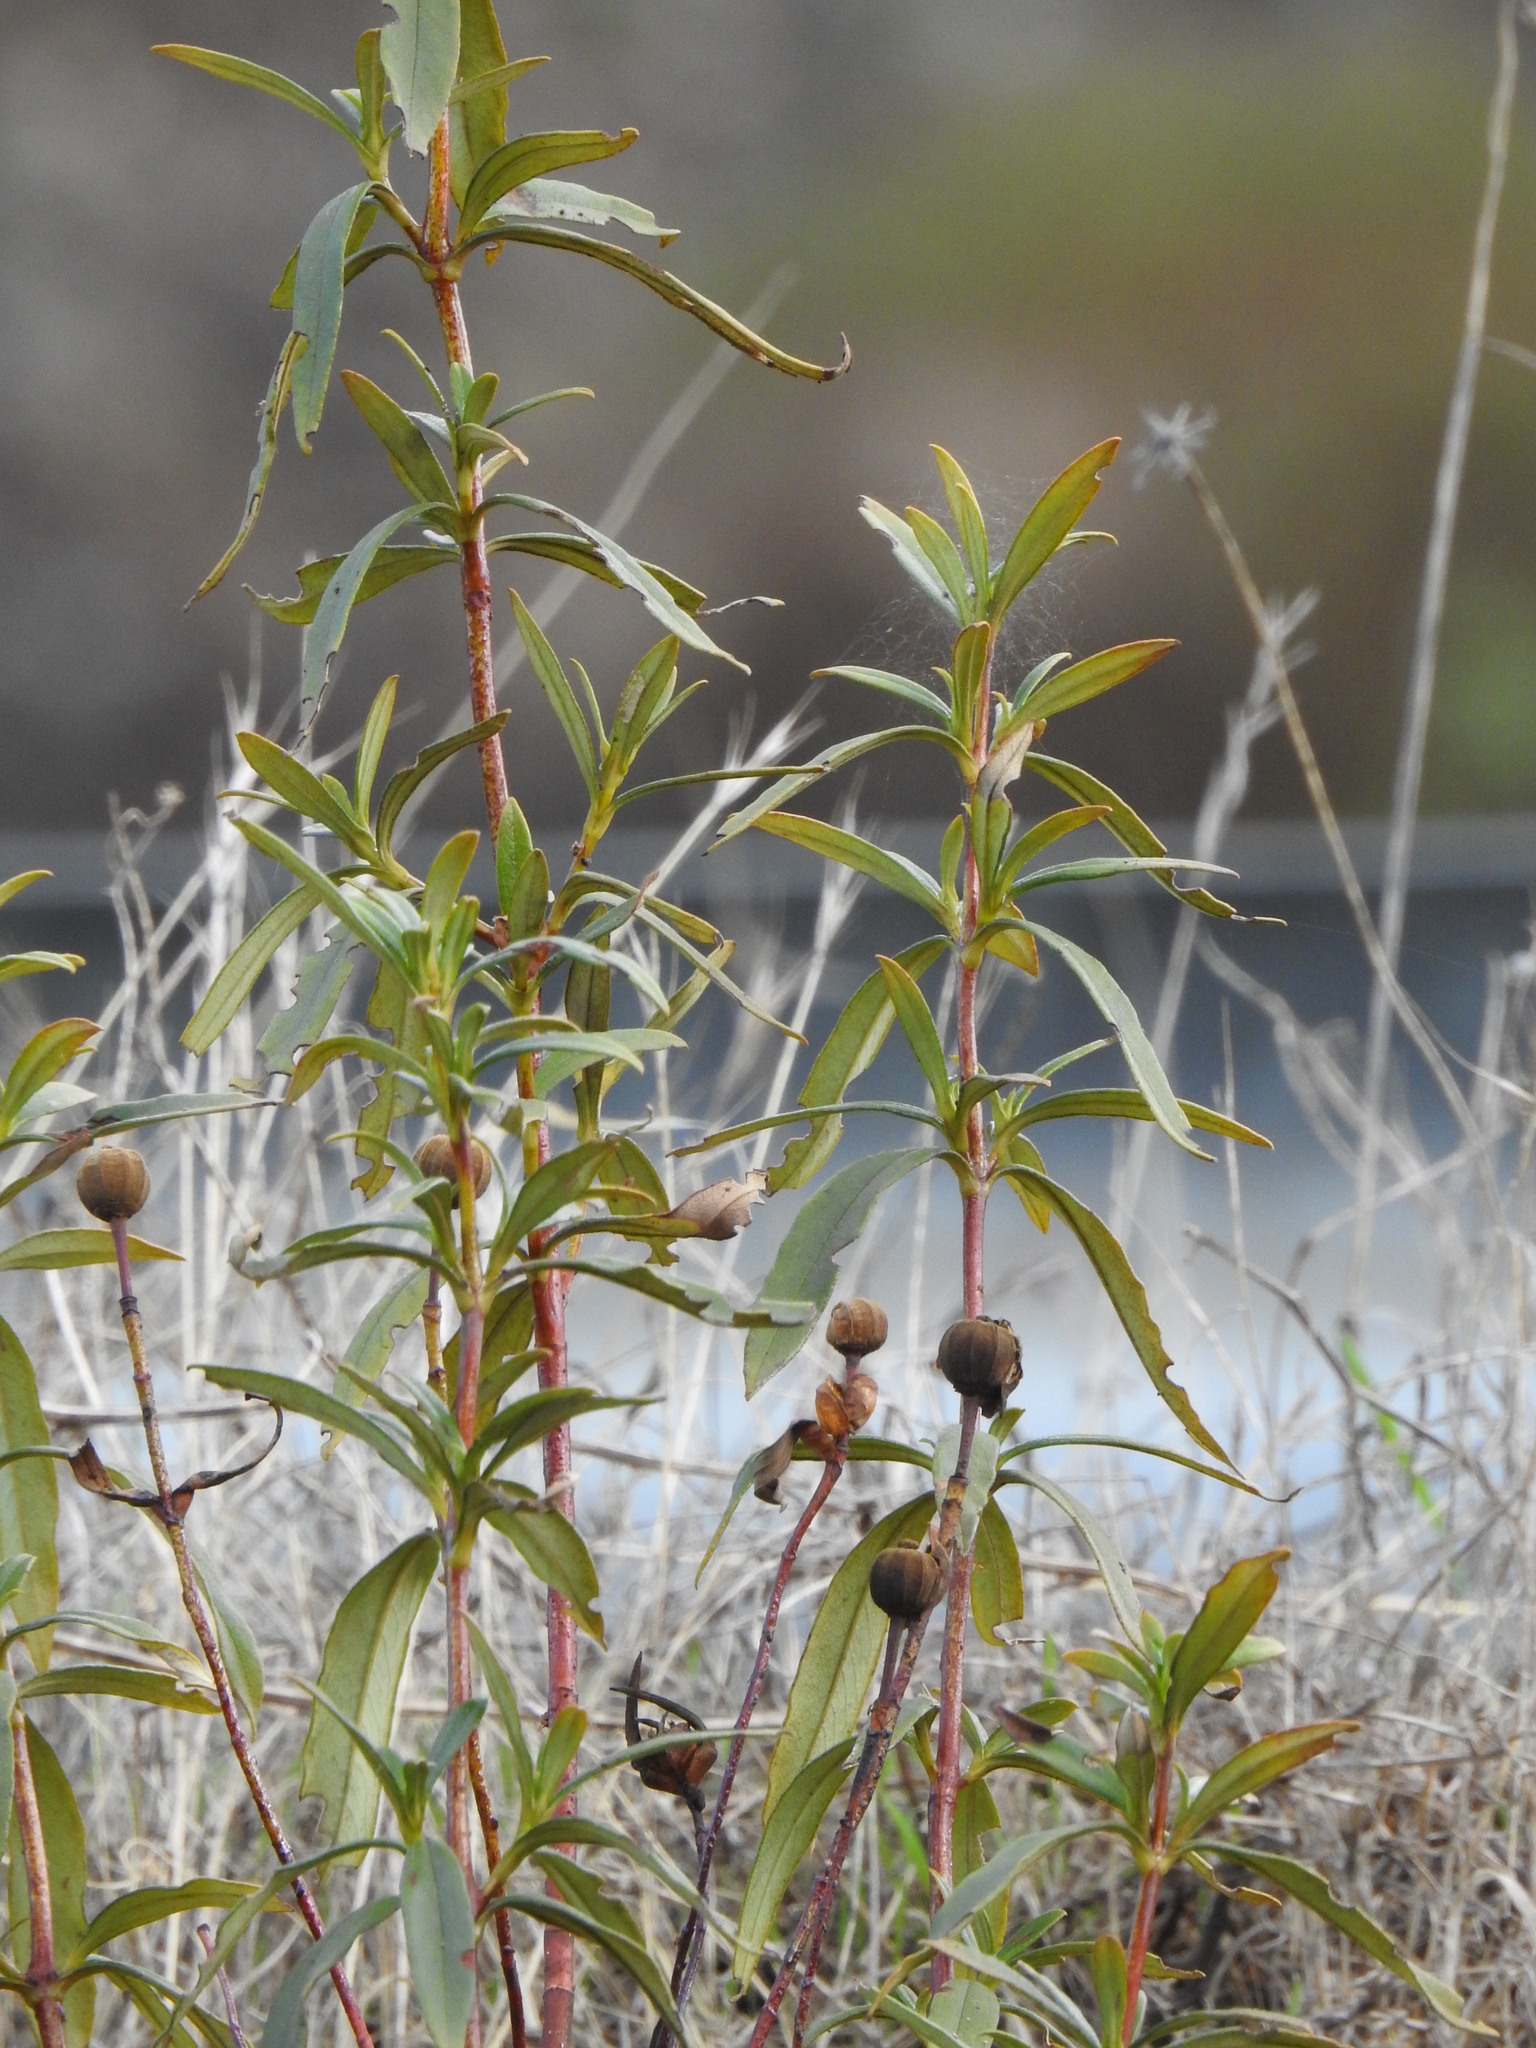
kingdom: Plantae
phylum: Tracheophyta
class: Magnoliopsida
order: Malvales
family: Cistaceae
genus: Cistus
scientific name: Cistus ladanifer
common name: Common gum cistus
